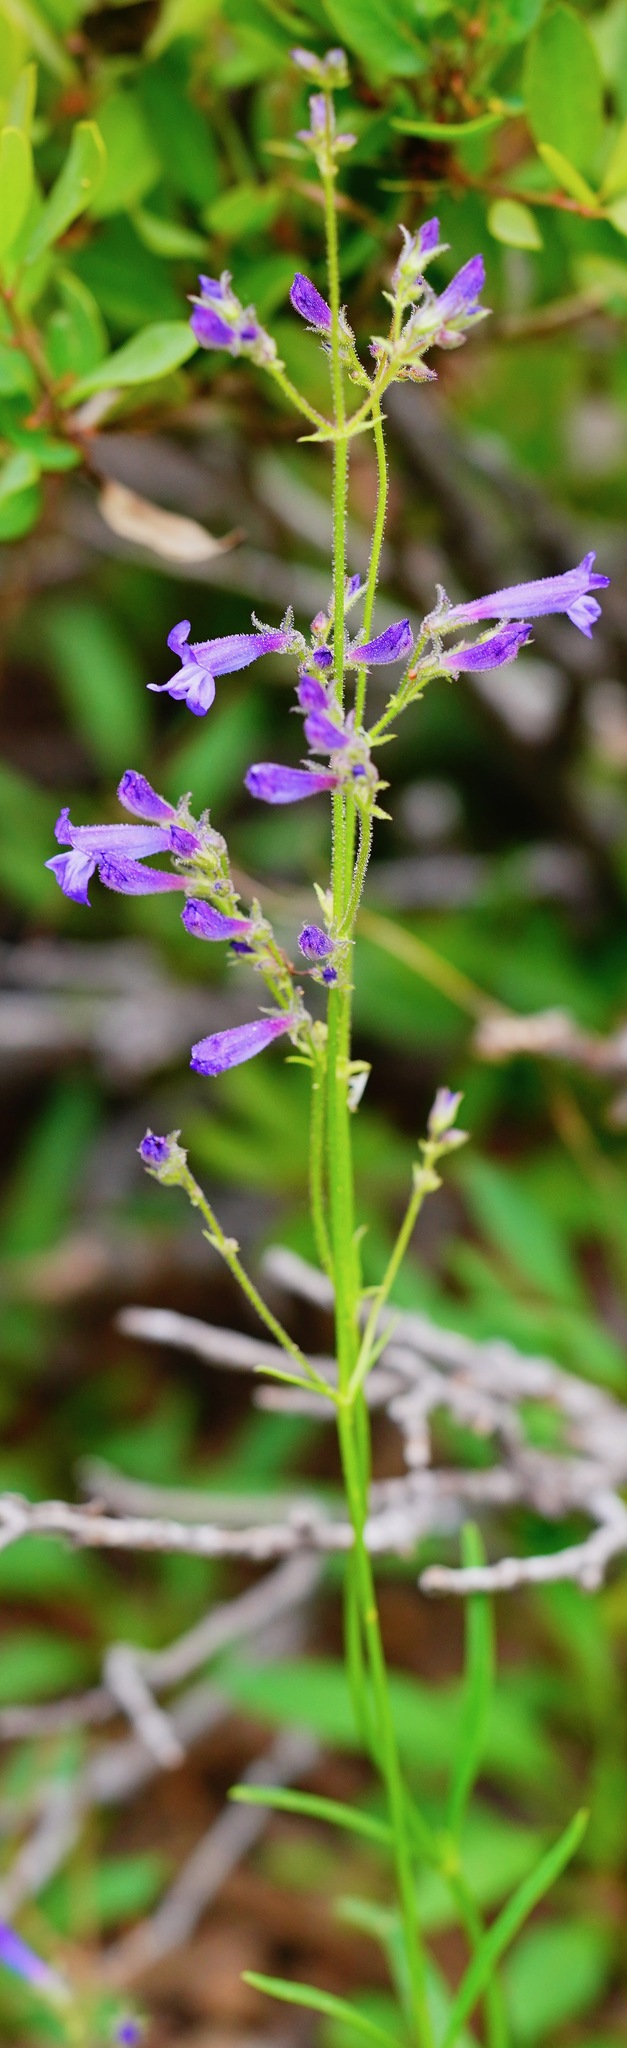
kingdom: Plantae
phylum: Tracheophyta
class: Magnoliopsida
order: Lamiales
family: Plantaginaceae
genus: Penstemon
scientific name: Penstemon gracilentus
